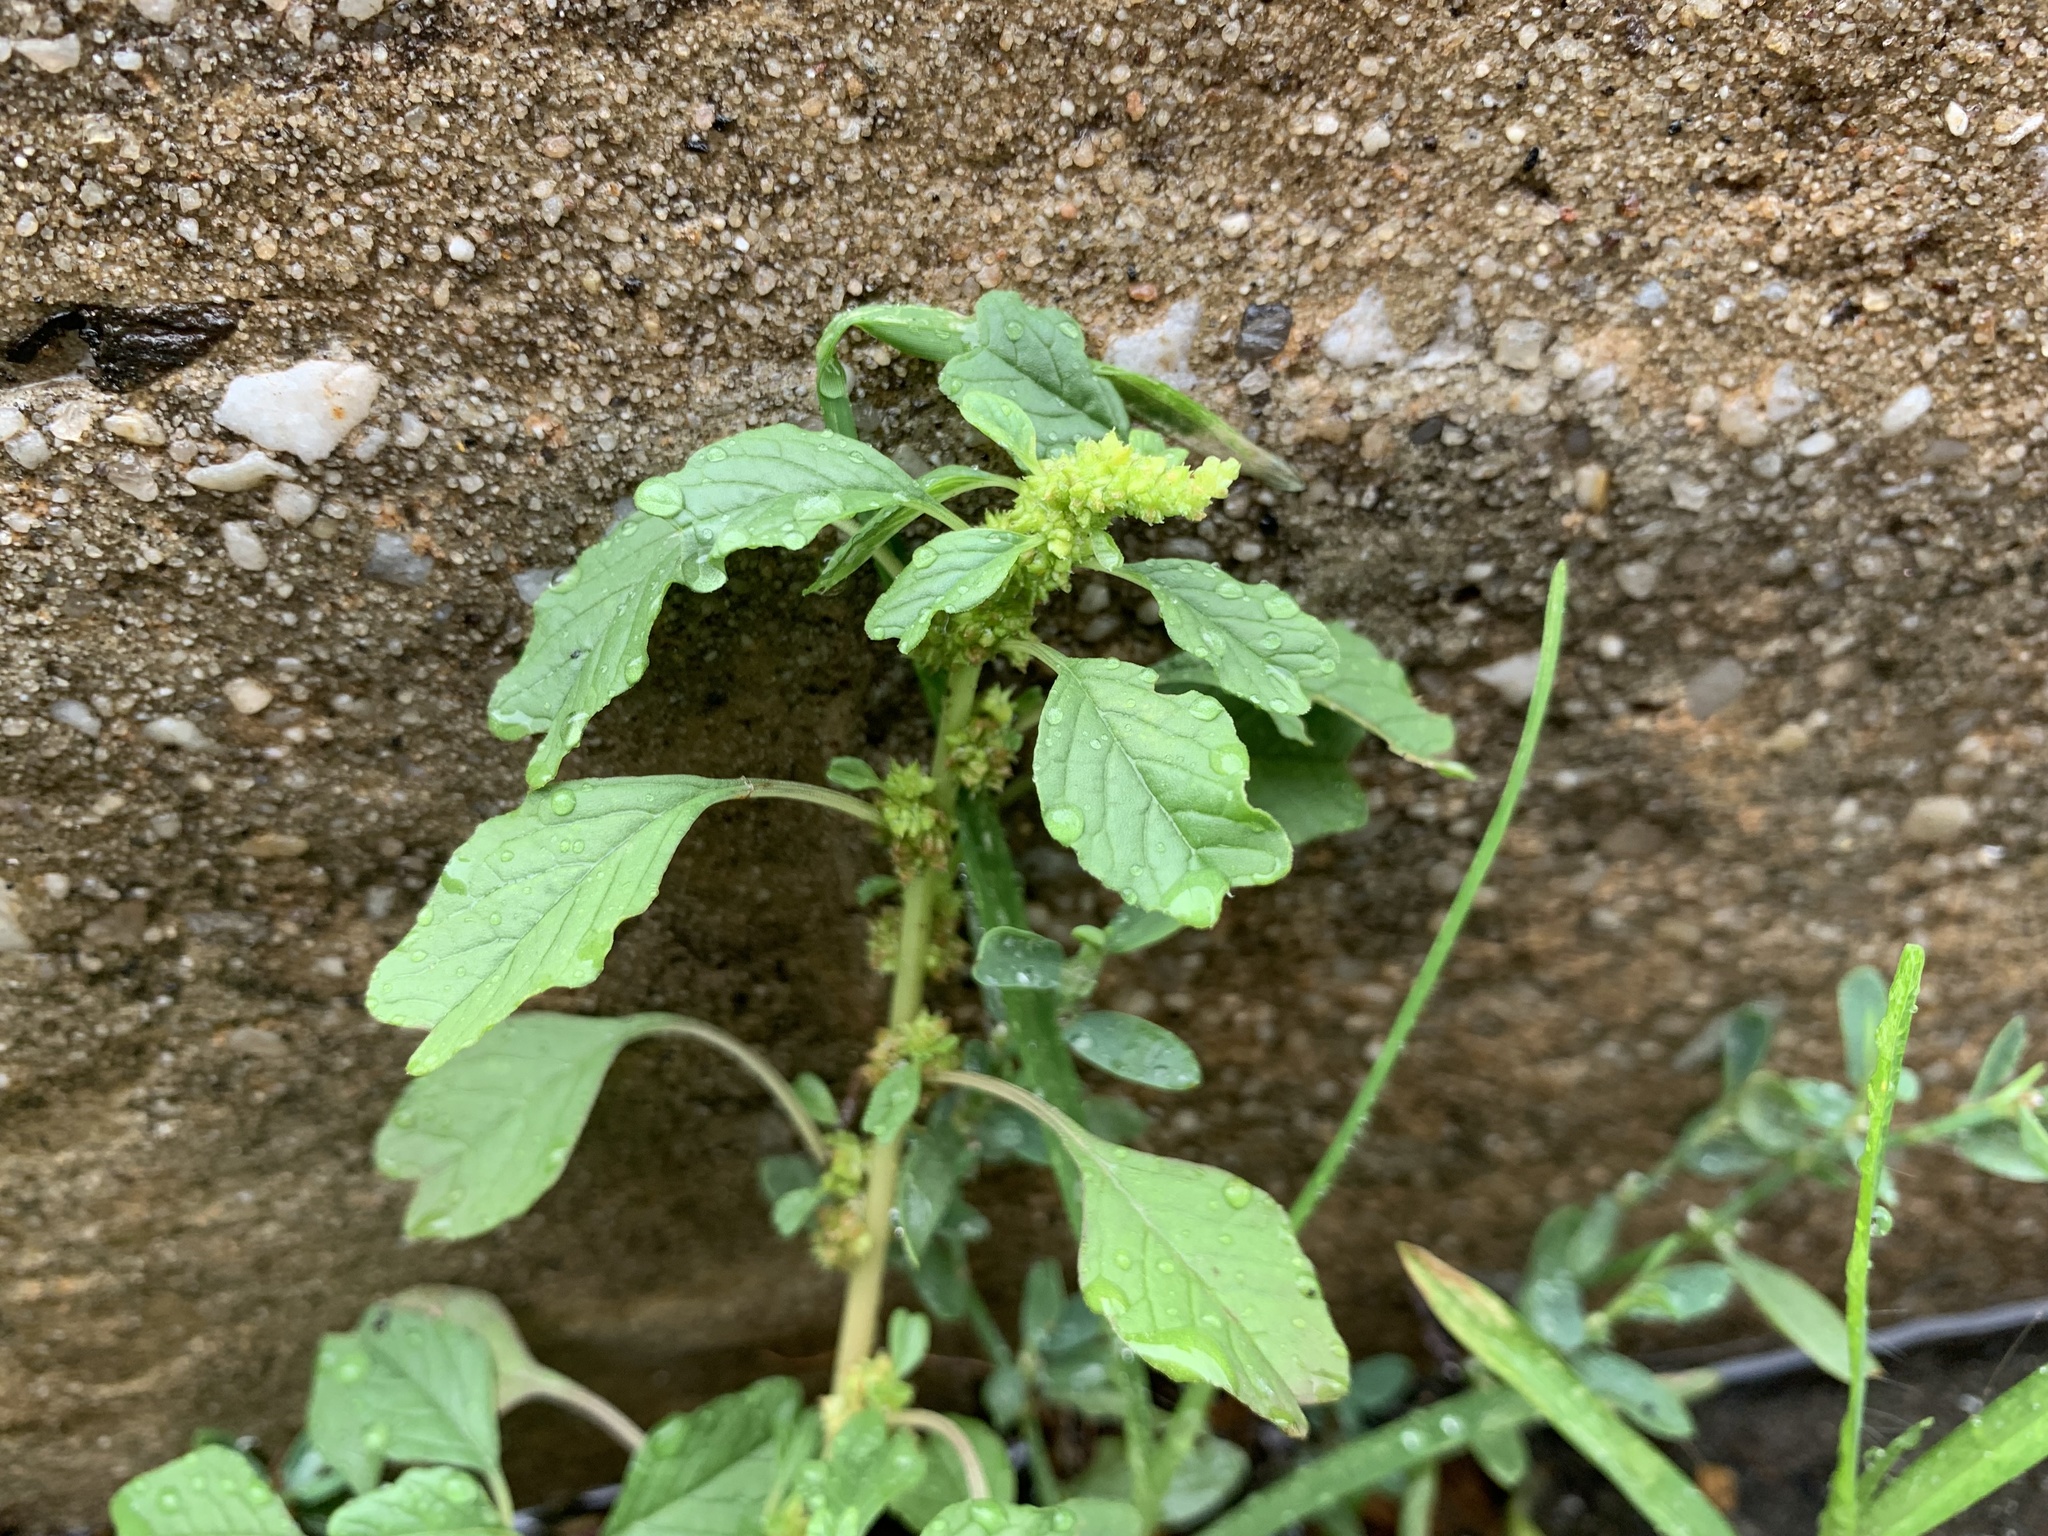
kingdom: Plantae
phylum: Tracheophyta
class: Magnoliopsida
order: Caryophyllales
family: Amaranthaceae
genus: Amaranthus
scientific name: Amaranthus blitum
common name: Purple amaranth
